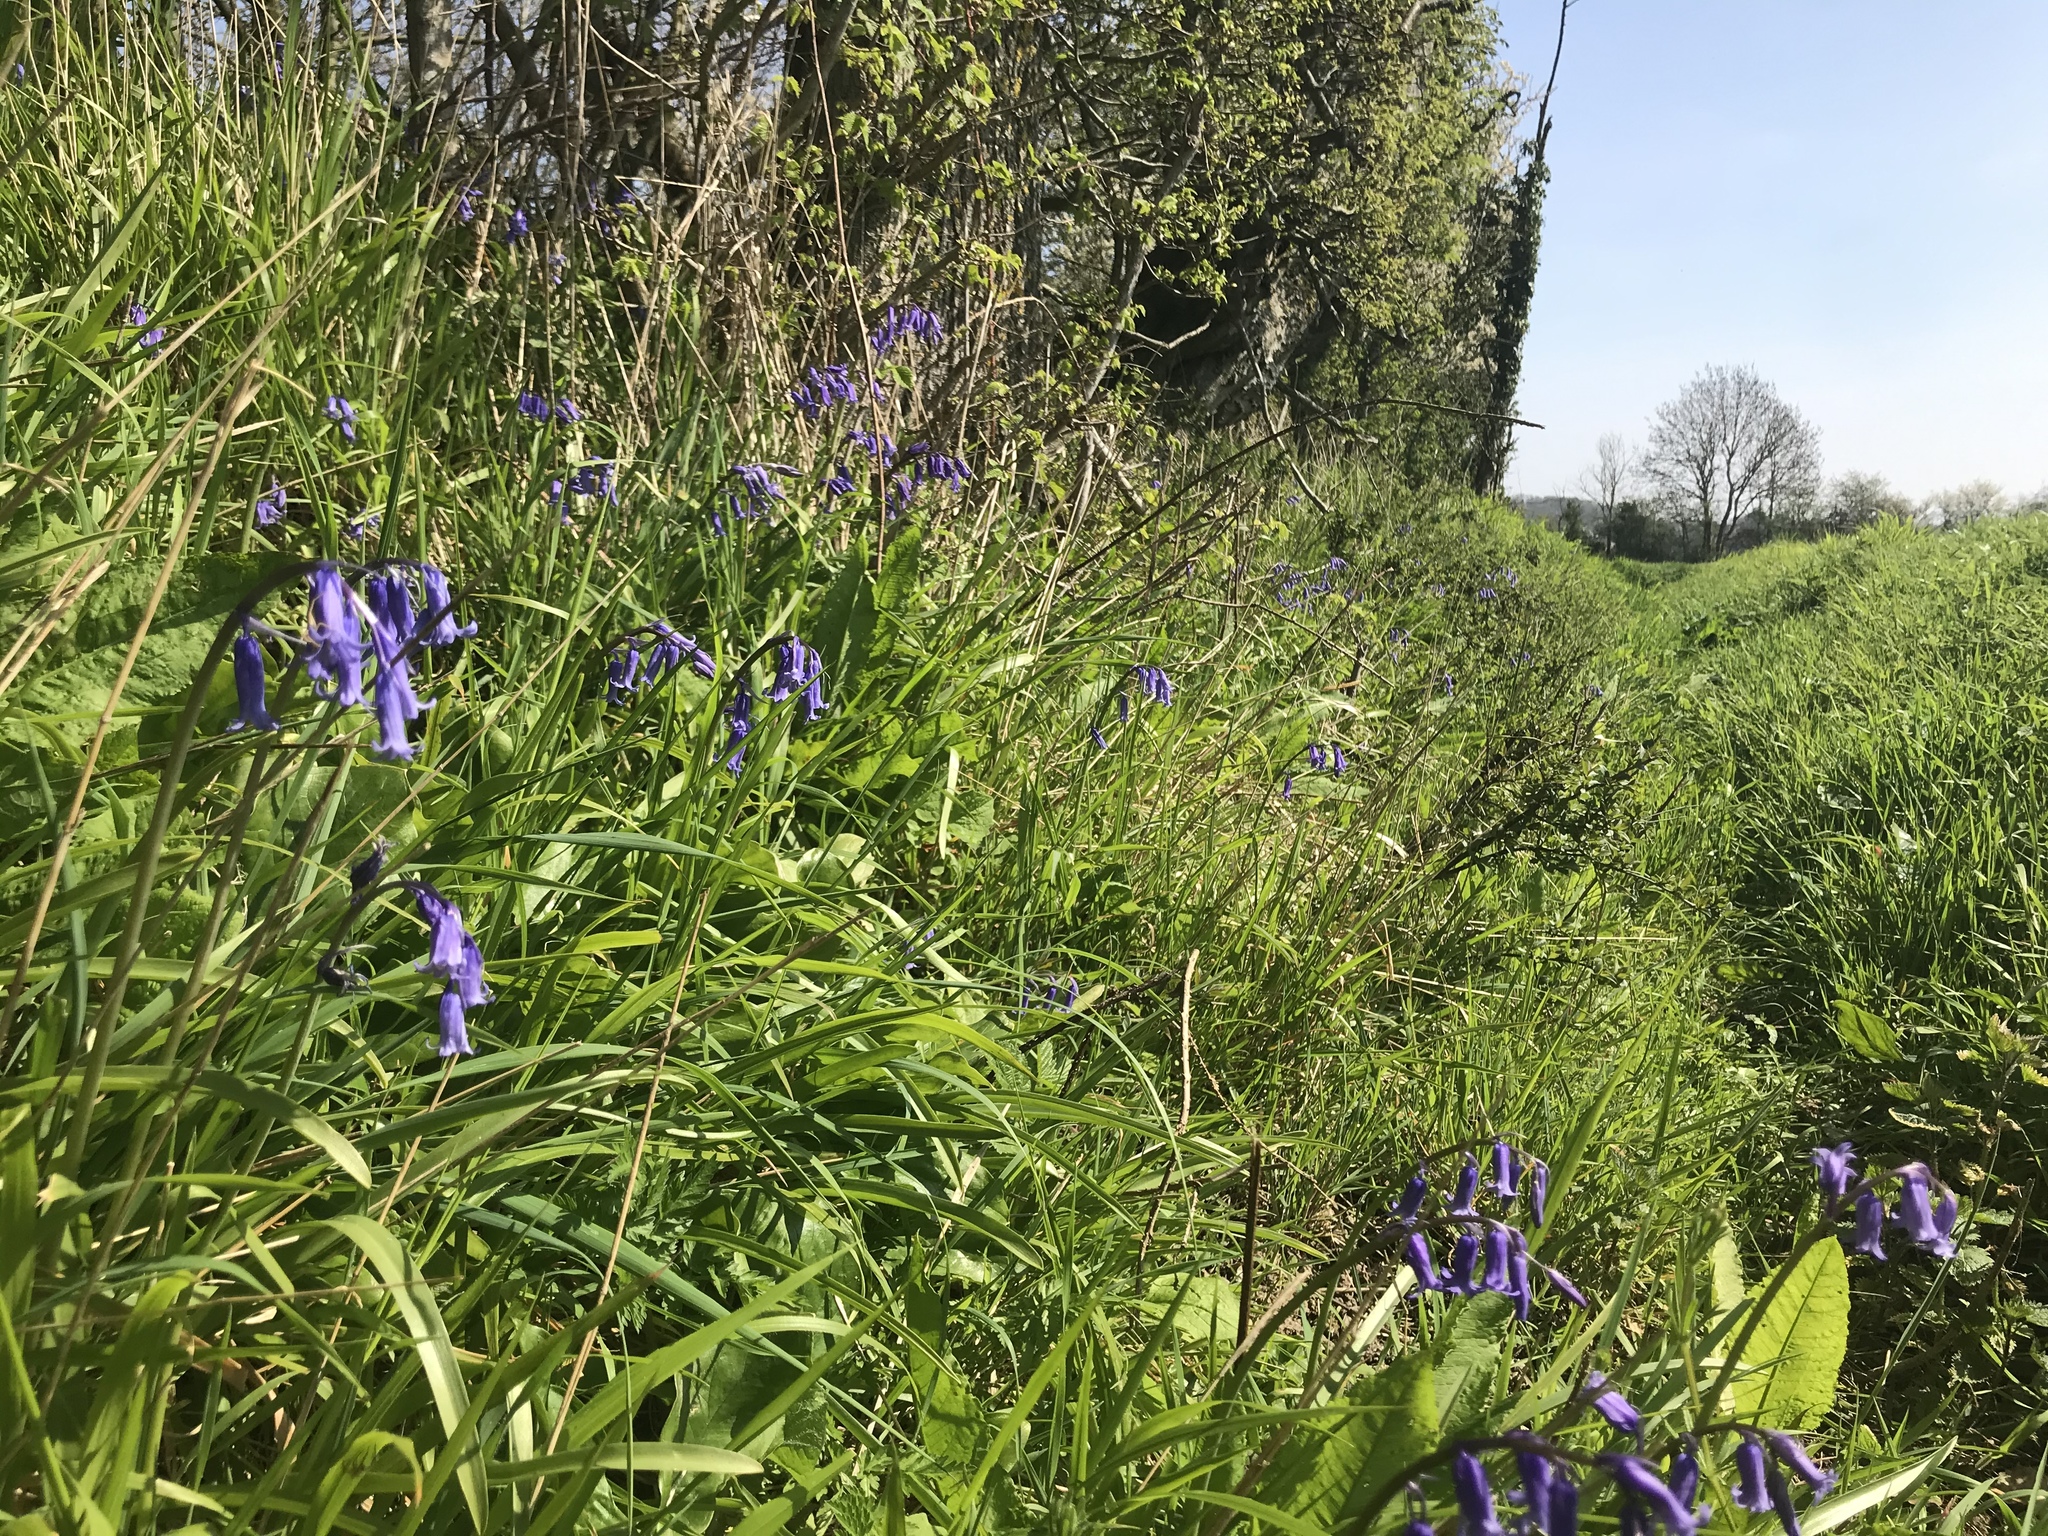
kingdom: Plantae
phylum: Tracheophyta
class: Liliopsida
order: Asparagales
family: Asparagaceae
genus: Hyacinthoides
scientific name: Hyacinthoides non-scripta
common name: Bluebell
